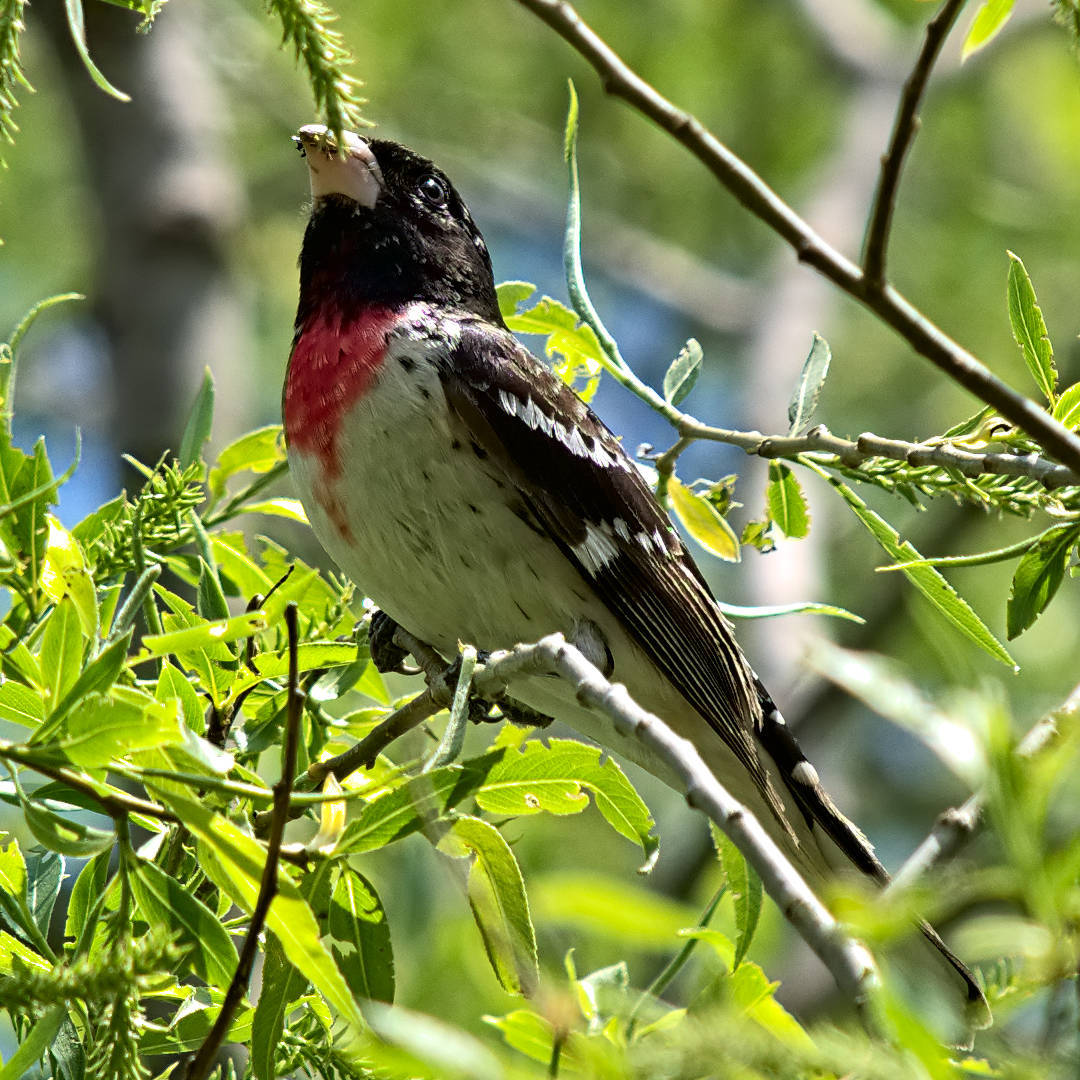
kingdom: Animalia
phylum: Chordata
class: Aves
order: Passeriformes
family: Cardinalidae
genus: Pheucticus
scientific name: Pheucticus ludovicianus
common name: Rose-breasted grosbeak
